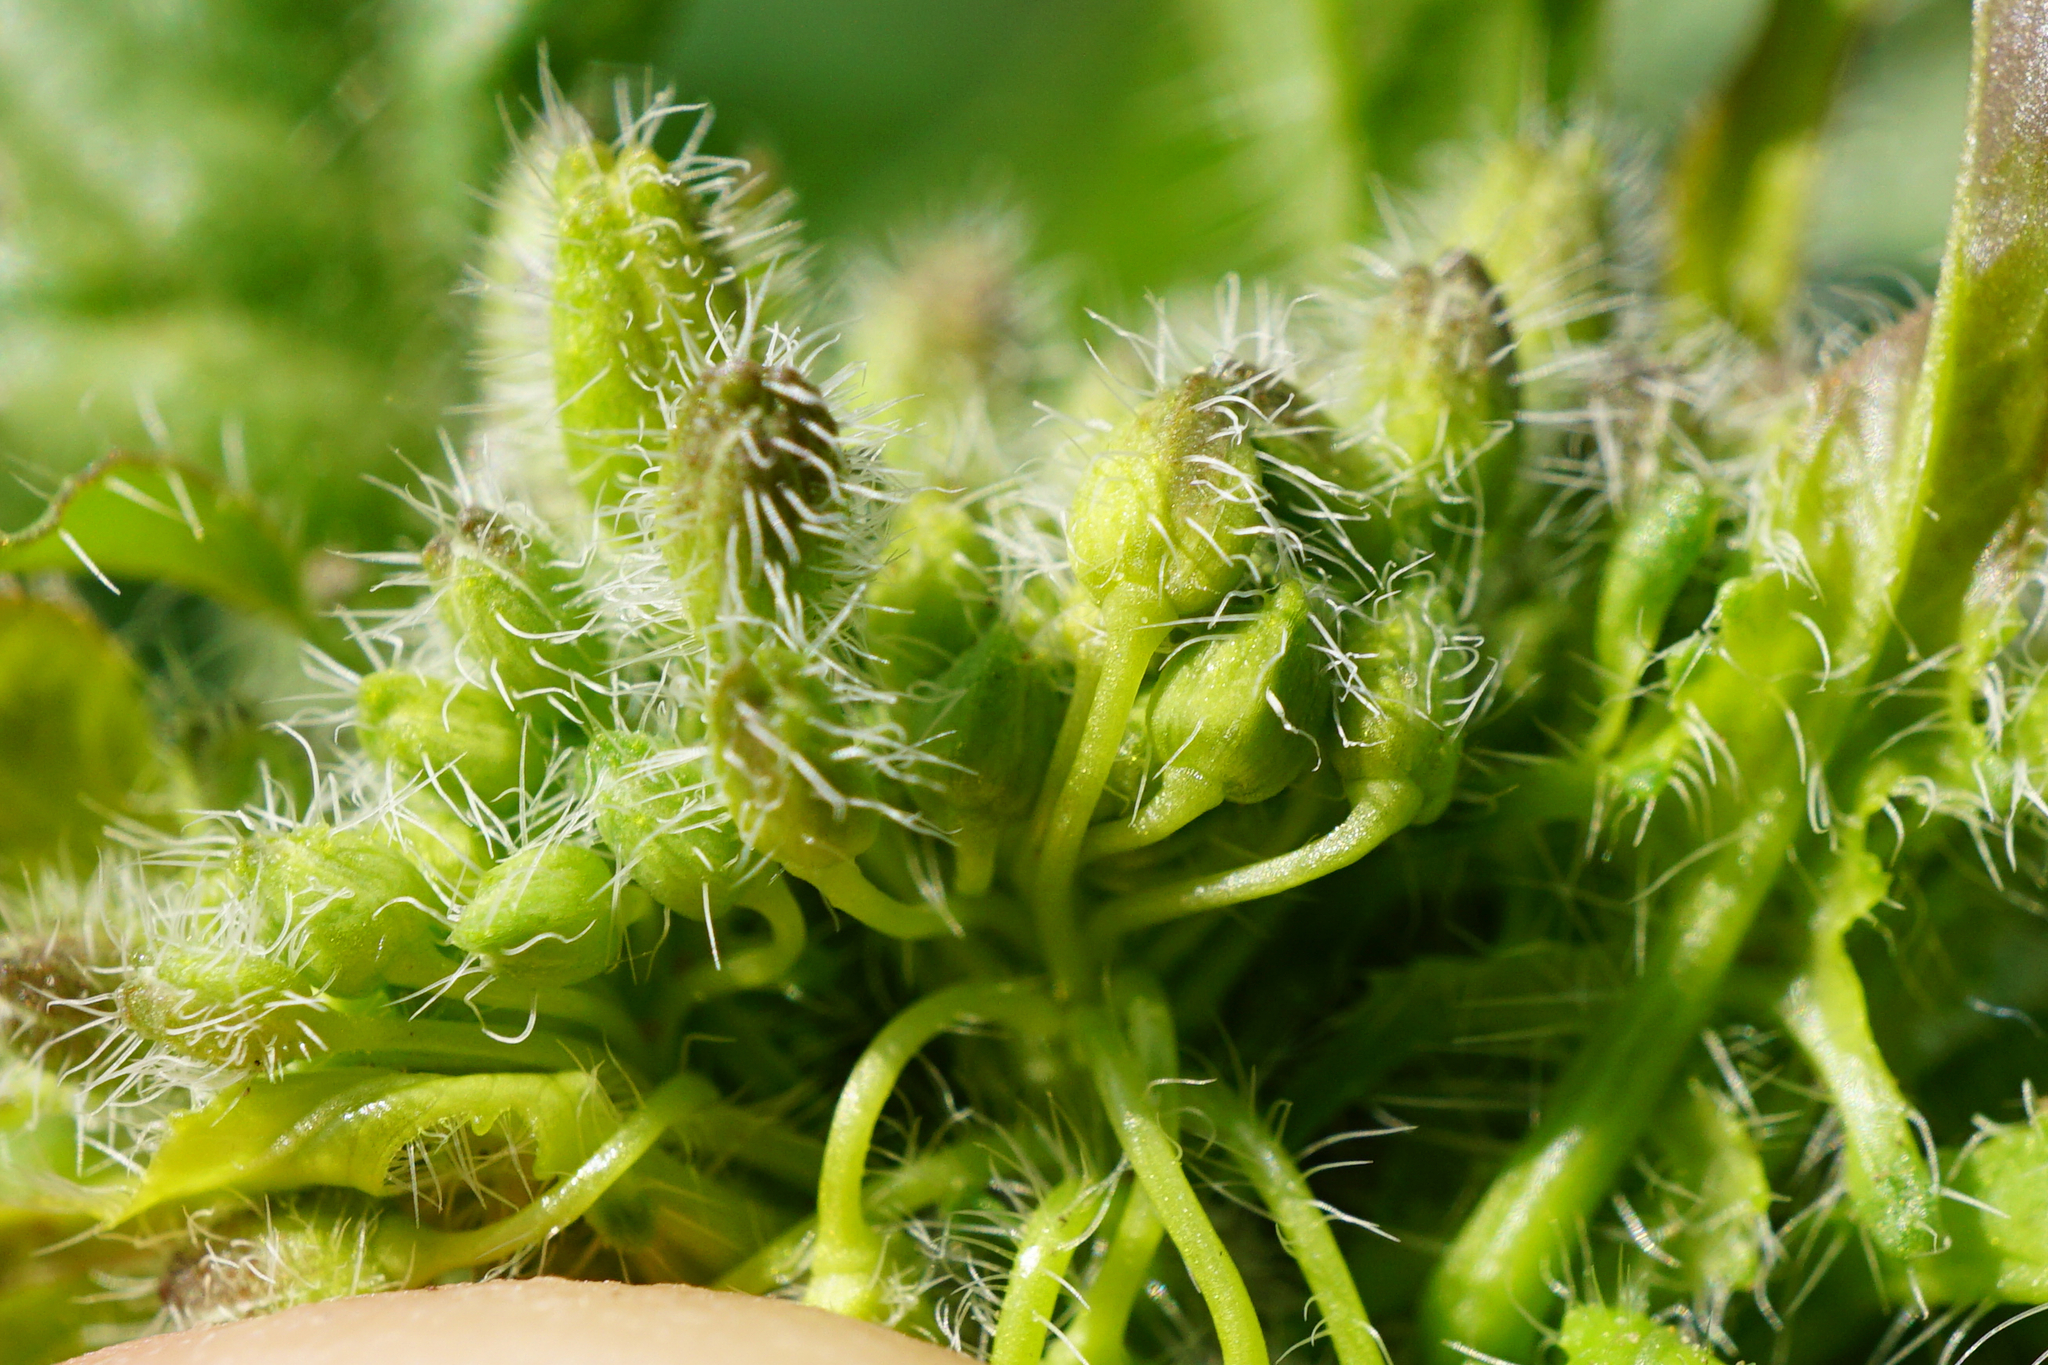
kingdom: Plantae
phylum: Tracheophyta
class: Magnoliopsida
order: Brassicales
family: Brassicaceae
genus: Sisymbrium
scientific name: Sisymbrium loeselii
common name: False london-rocket
